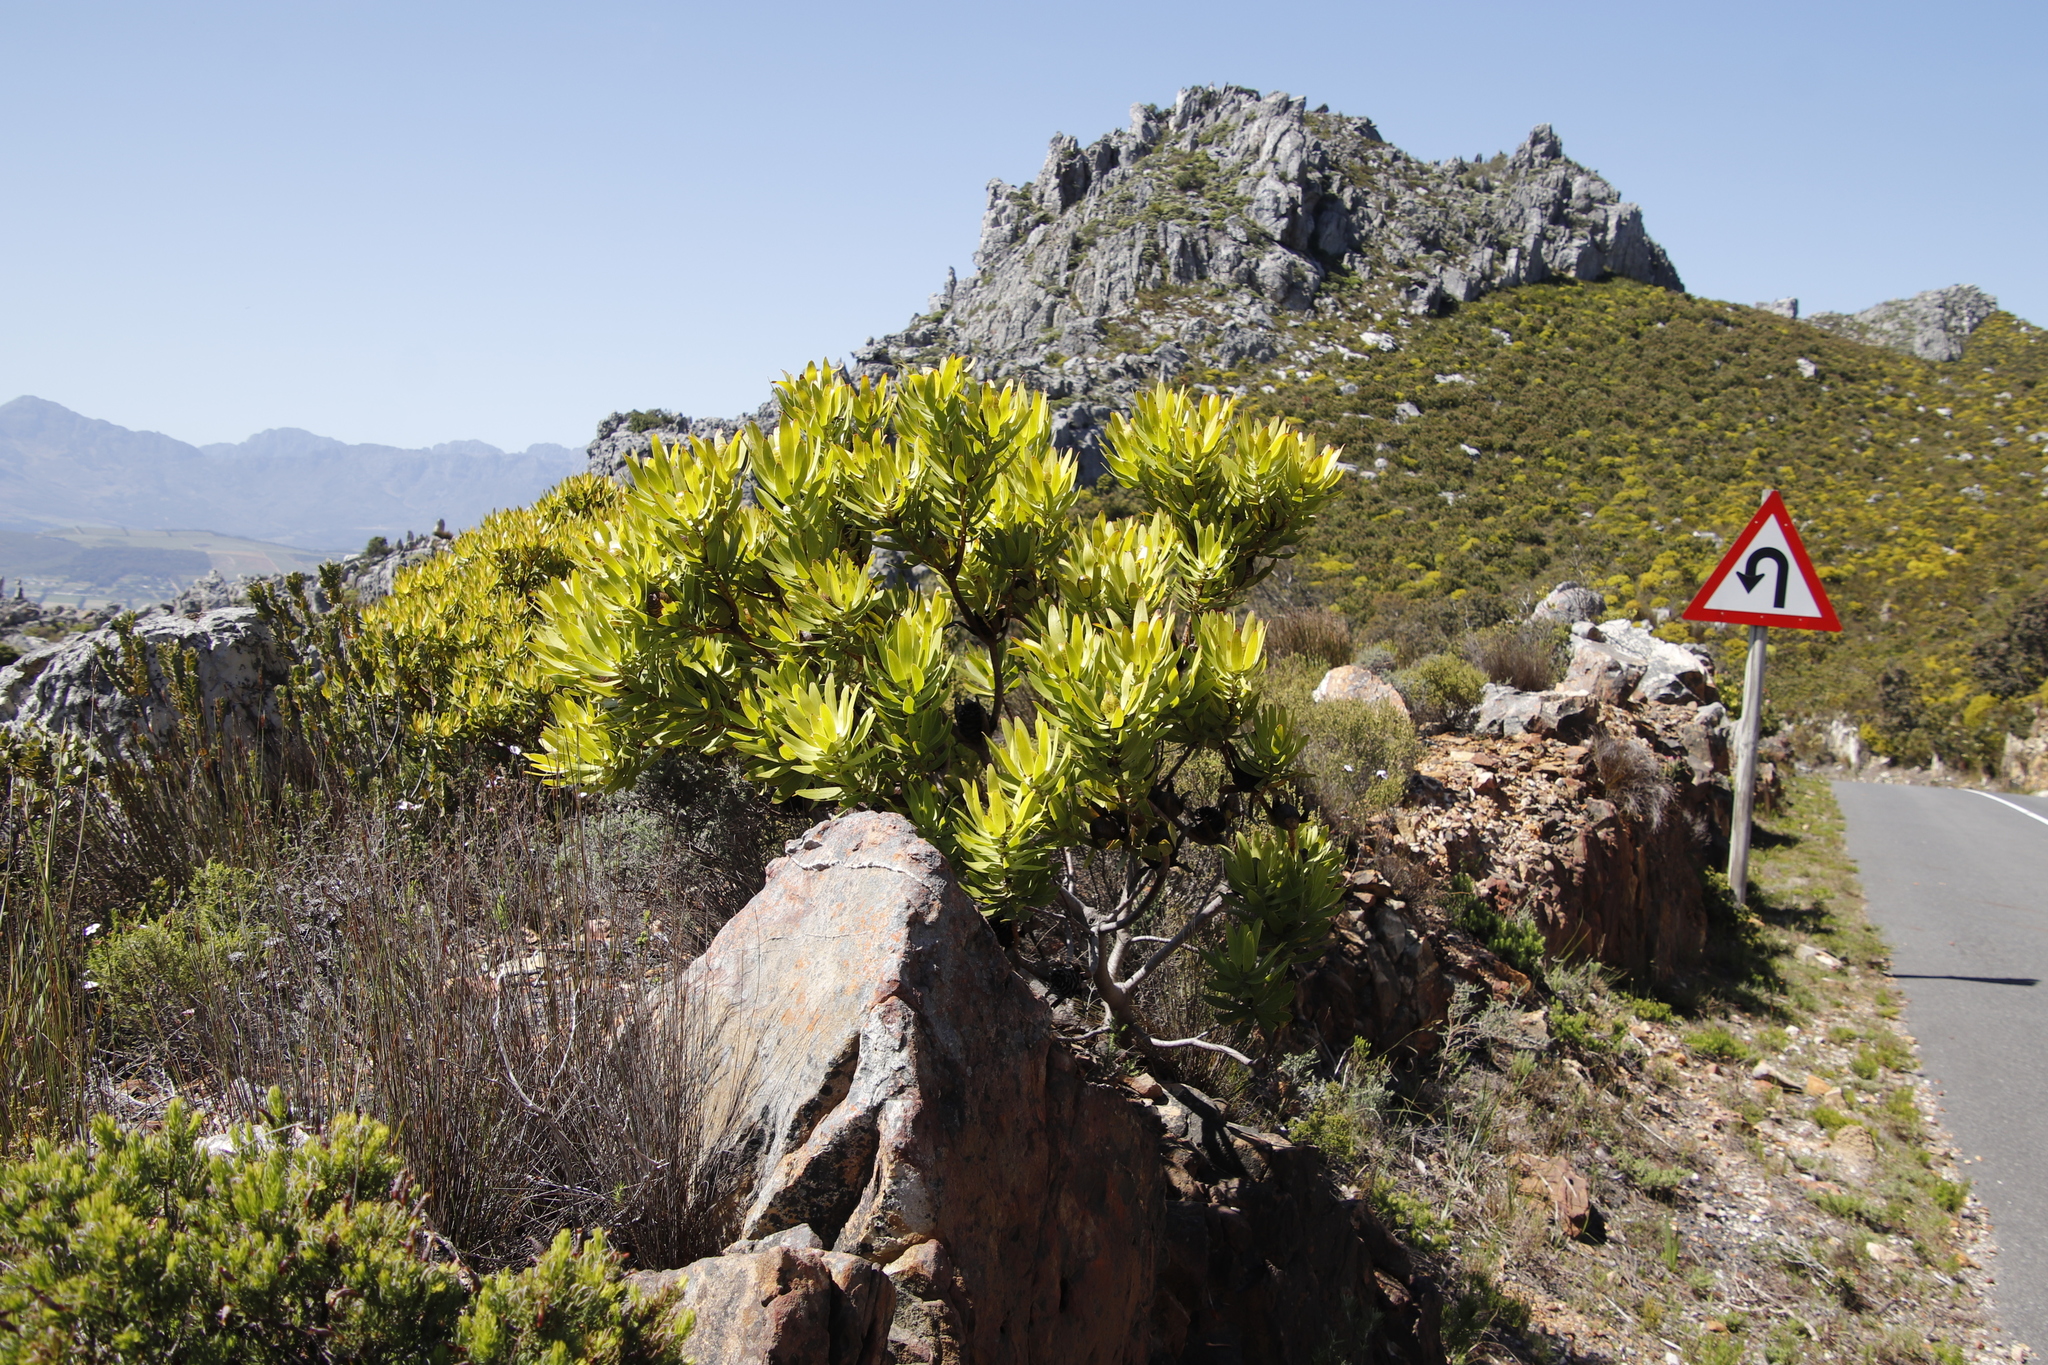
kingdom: Plantae
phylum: Tracheophyta
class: Magnoliopsida
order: Proteales
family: Proteaceae
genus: Leucadendron
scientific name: Leucadendron laureolum
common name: Golden sunshinebush
